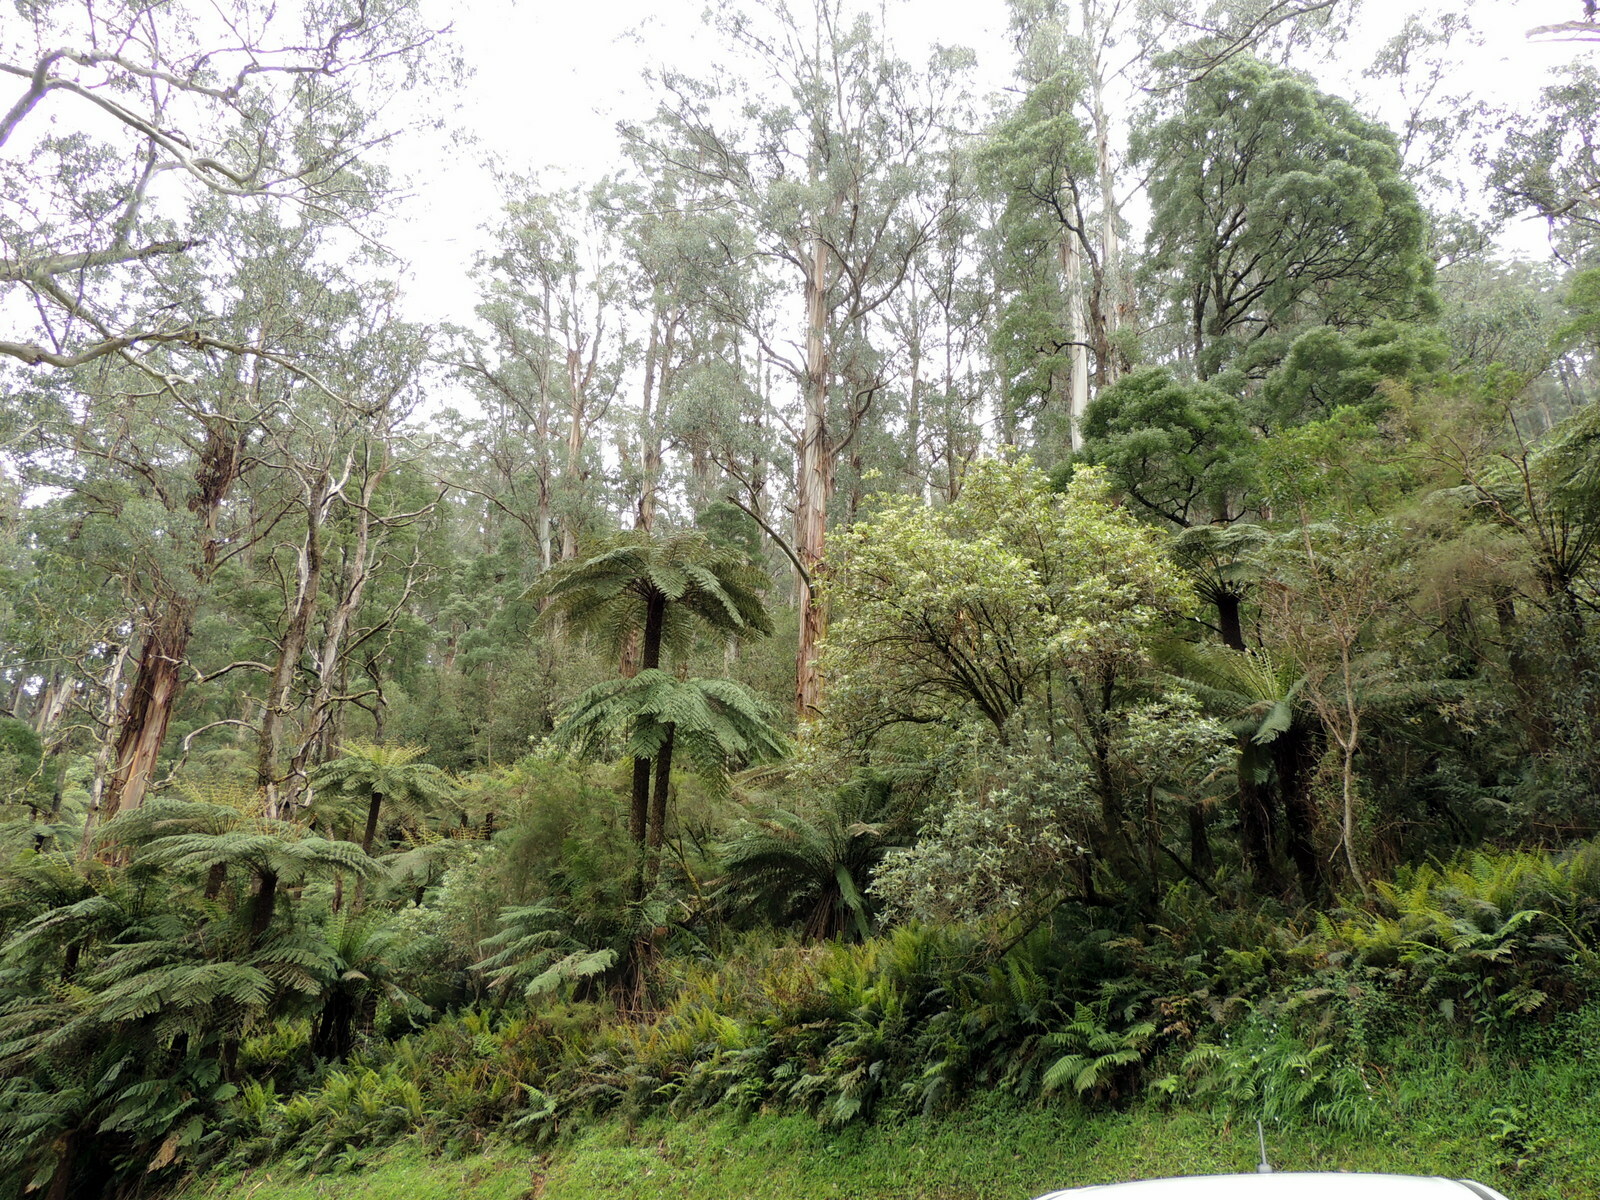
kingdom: Plantae
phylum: Tracheophyta
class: Polypodiopsida
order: Cyatheales
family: Dicksoniaceae
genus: Dicksonia
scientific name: Dicksonia antarctica
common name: Australian treefern
